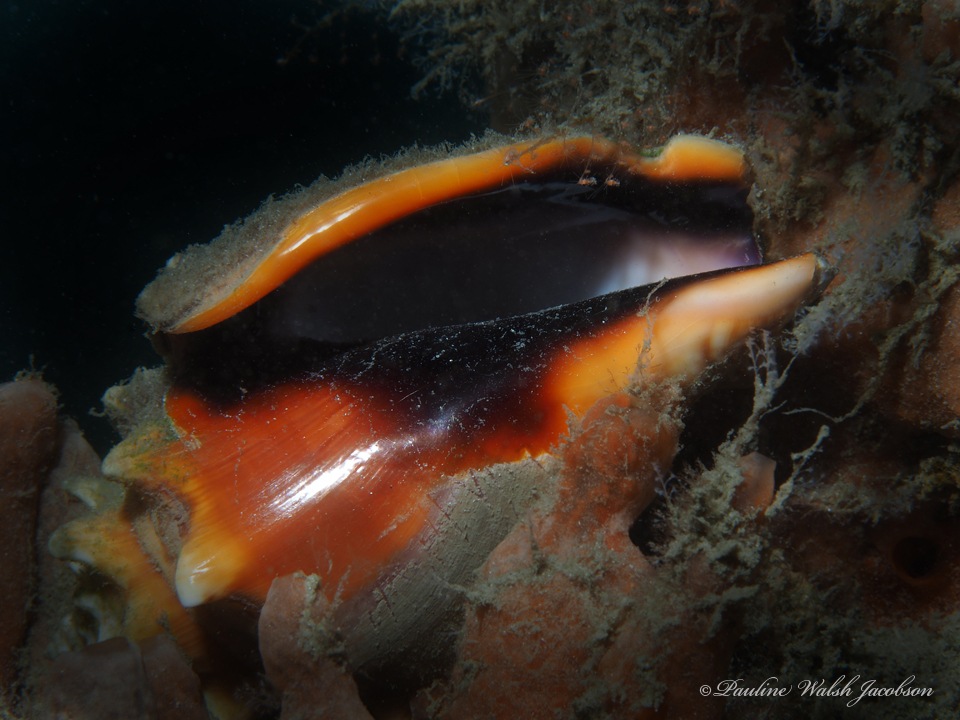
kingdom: Animalia
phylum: Mollusca
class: Gastropoda
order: Littorinimorpha
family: Strombidae
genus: Strombus
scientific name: Strombus alatus
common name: Florida fighting conch
